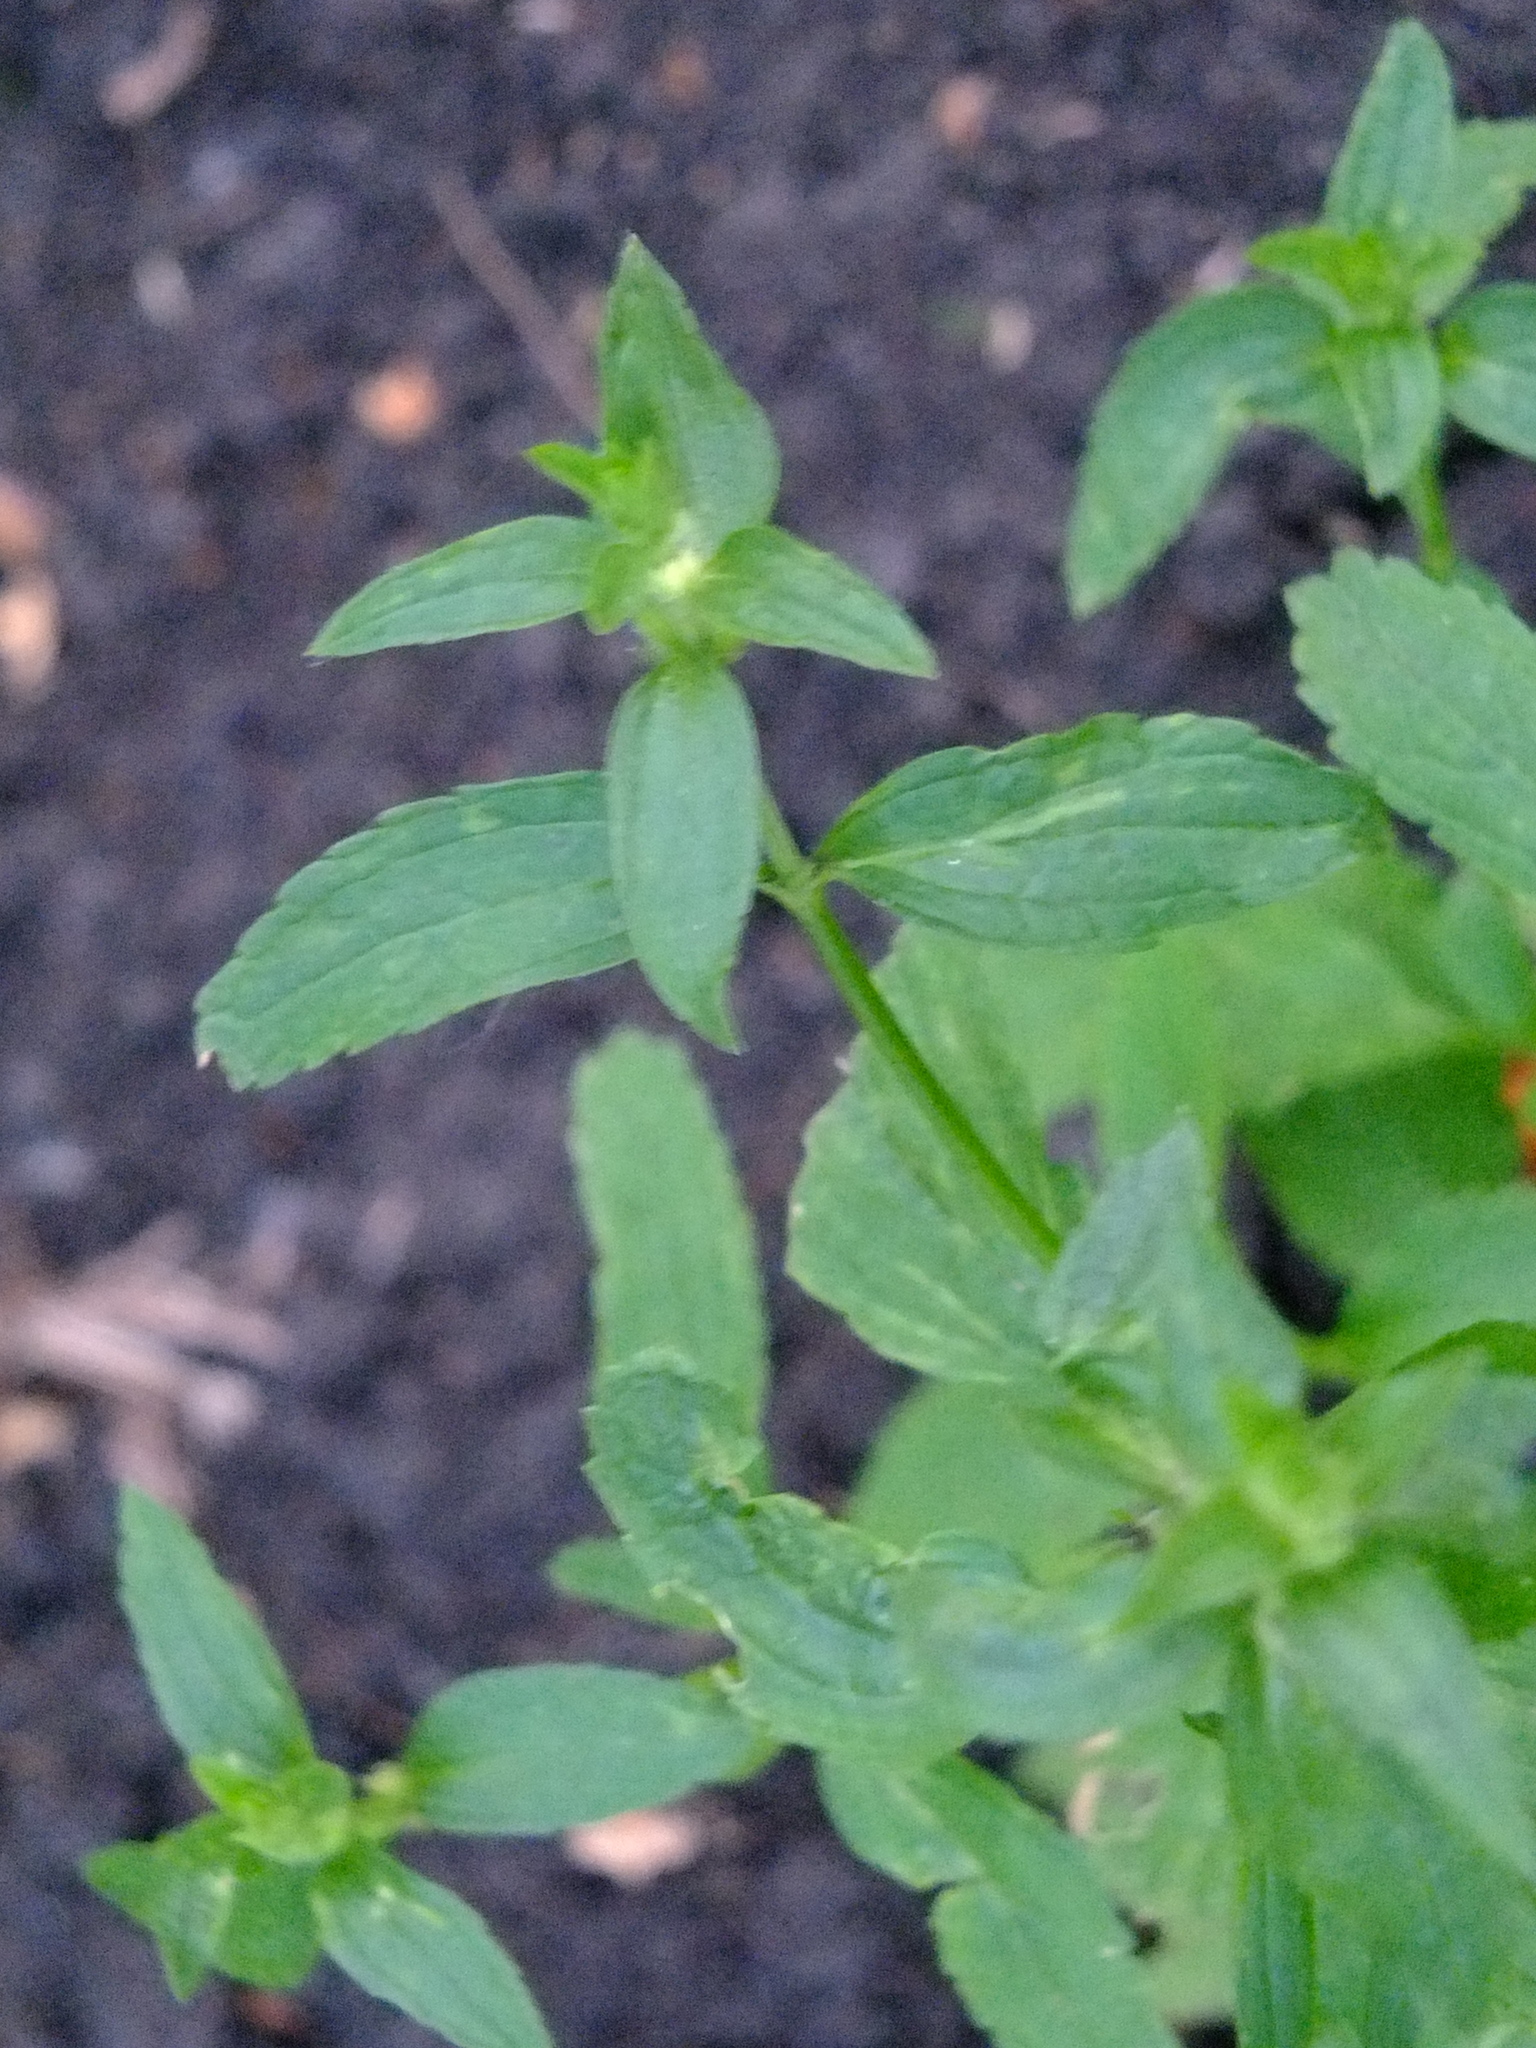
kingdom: Plantae
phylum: Tracheophyta
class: Magnoliopsida
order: Lamiales
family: Lamiaceae
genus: Stachys
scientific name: Stachys annua
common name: Annual yellow-woundwort
